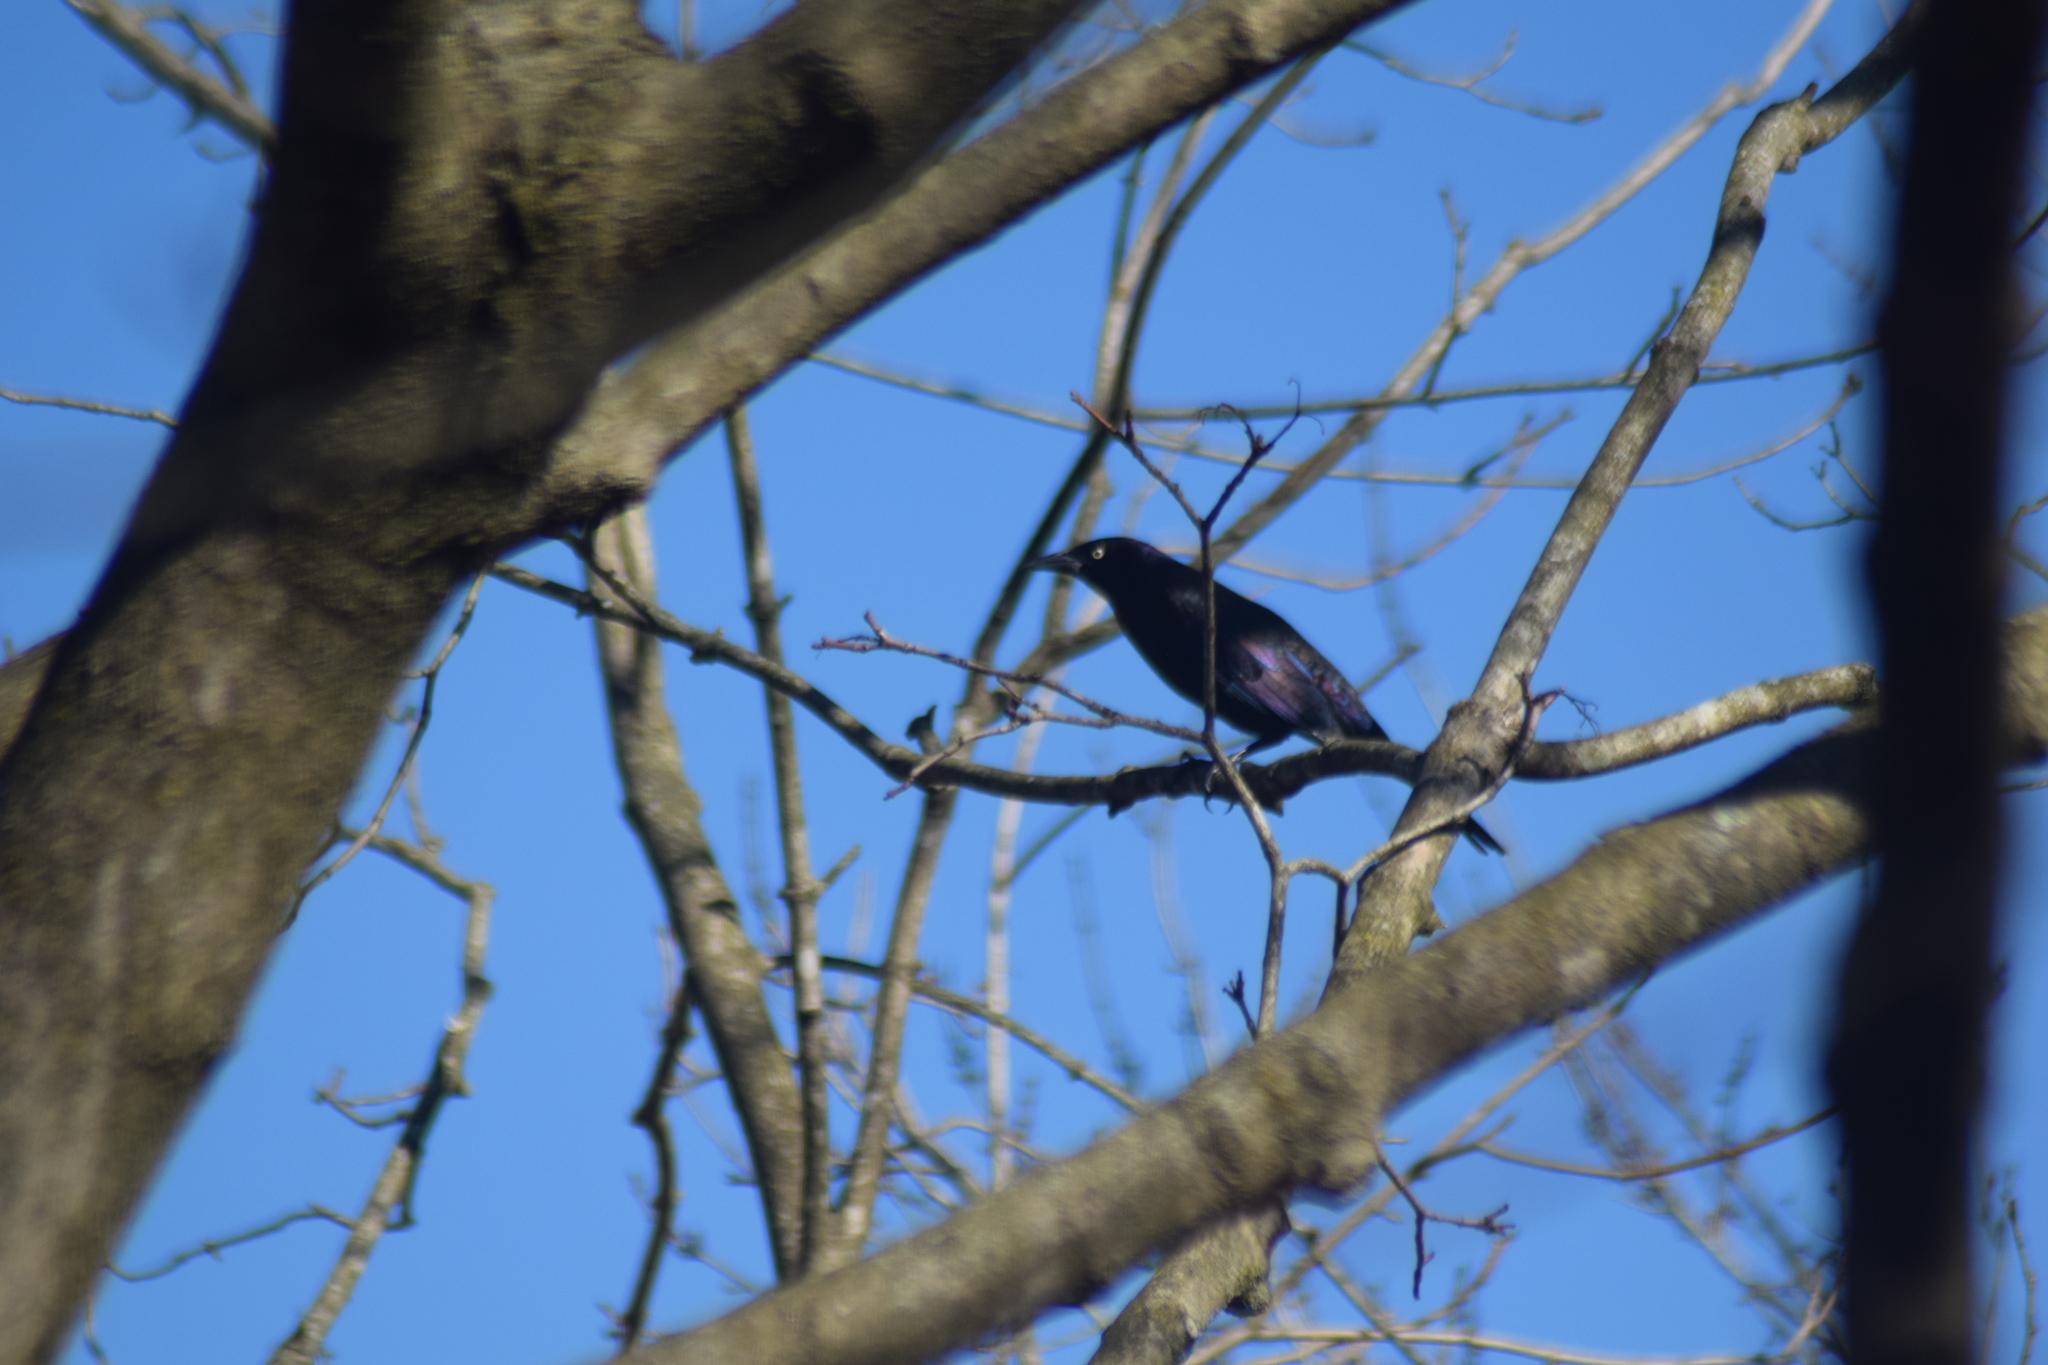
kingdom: Animalia
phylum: Chordata
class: Aves
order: Passeriformes
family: Icteridae
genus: Quiscalus
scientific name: Quiscalus quiscula
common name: Common grackle
